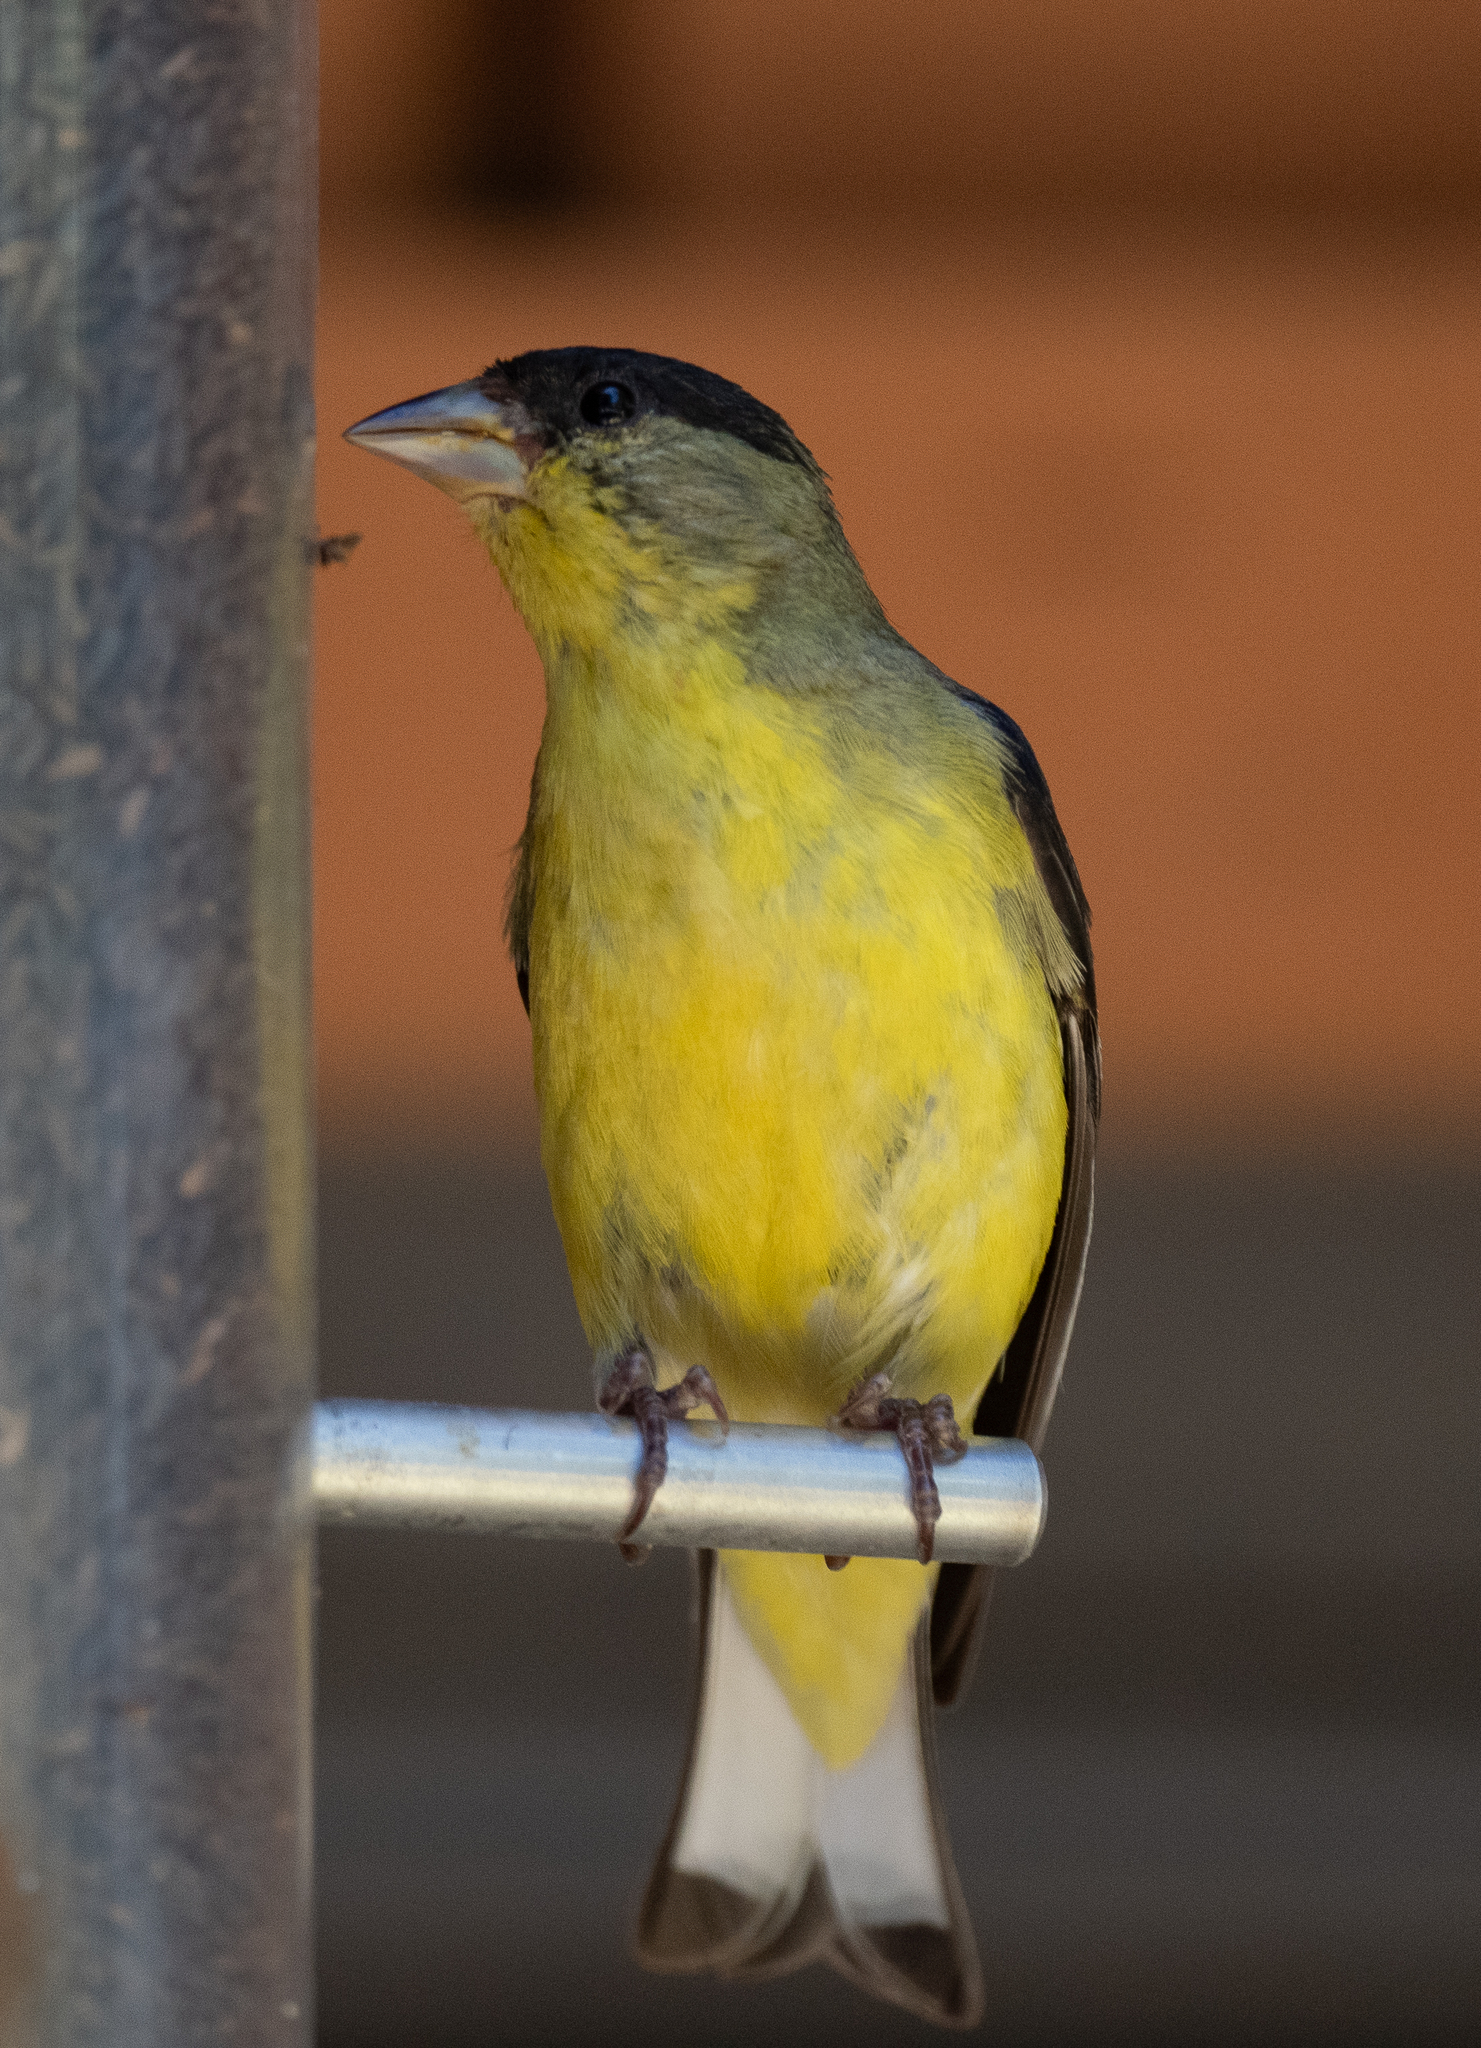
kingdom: Animalia
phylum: Chordata
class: Aves
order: Passeriformes
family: Fringillidae
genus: Spinus
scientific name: Spinus psaltria
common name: Lesser goldfinch
